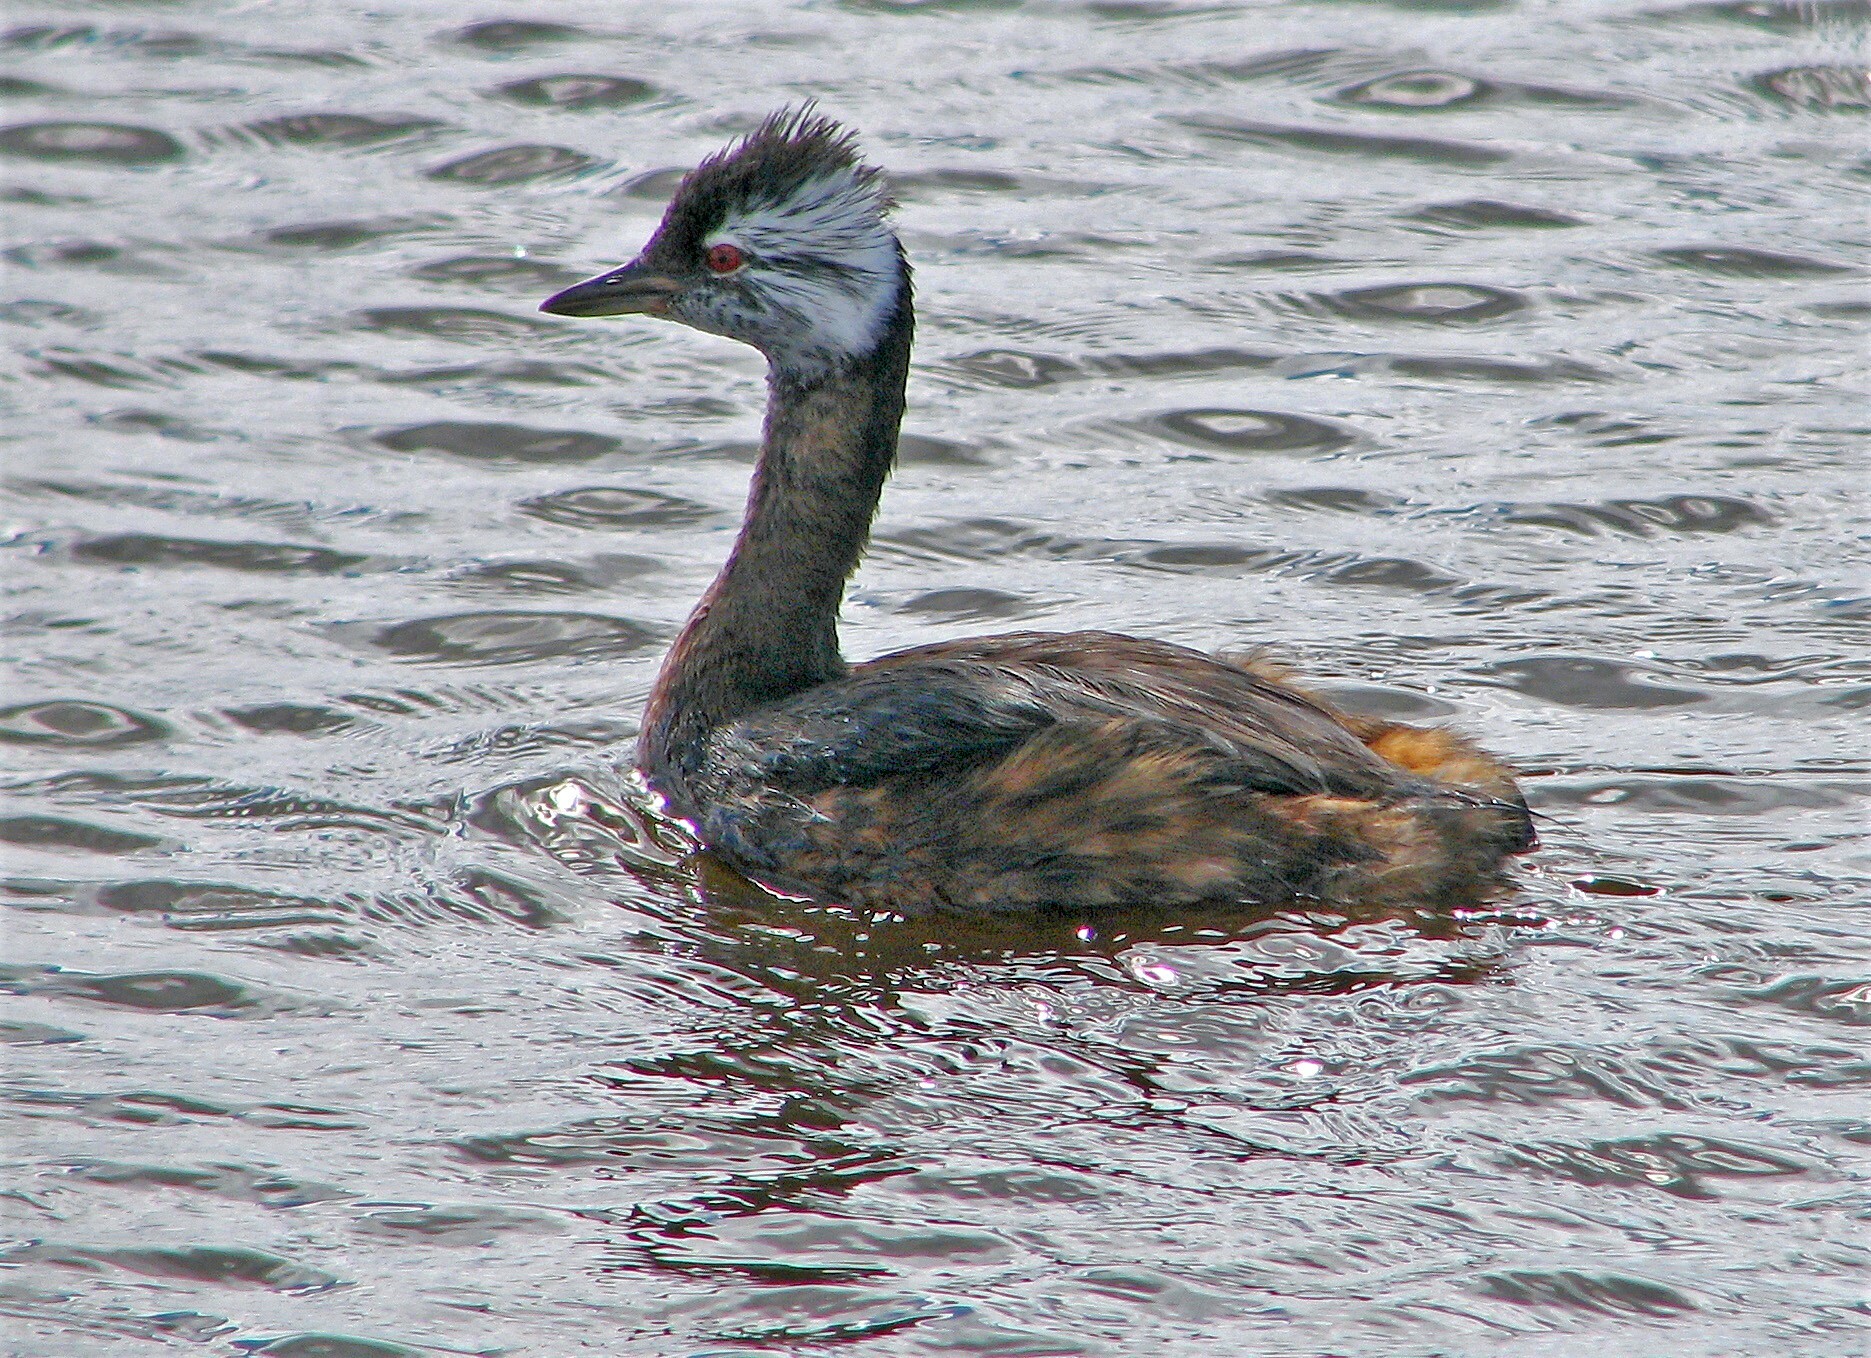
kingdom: Animalia
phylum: Chordata
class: Aves
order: Podicipediformes
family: Podicipedidae
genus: Rollandia
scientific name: Rollandia rolland
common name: White-tufted grebe
